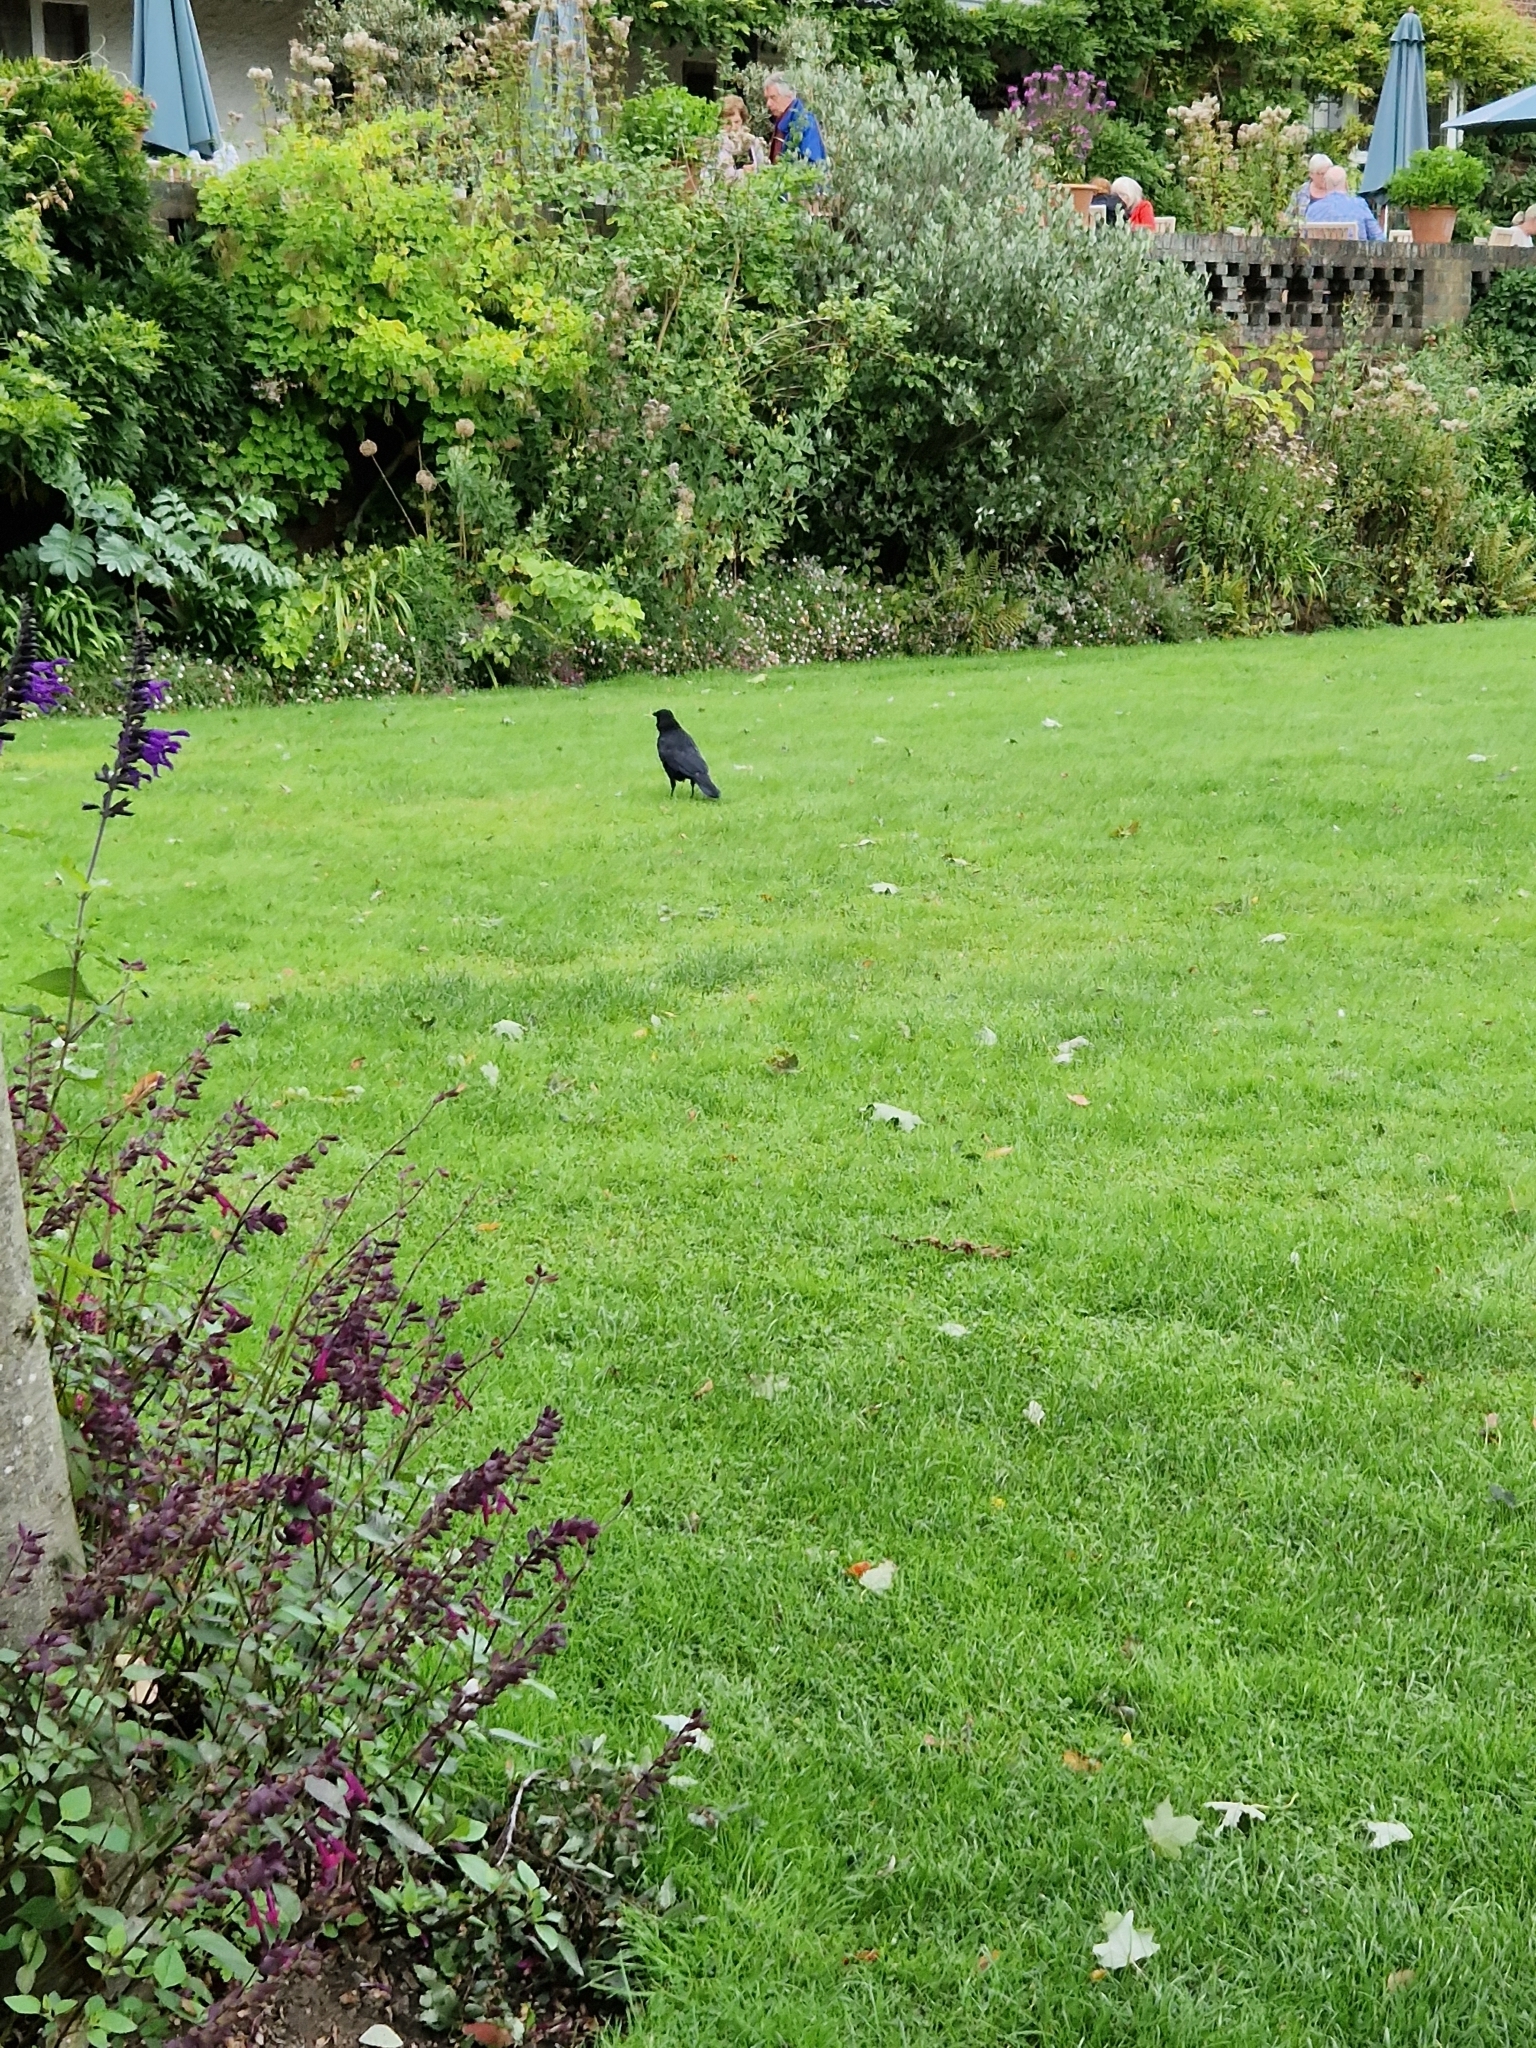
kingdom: Animalia
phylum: Chordata
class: Aves
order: Passeriformes
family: Corvidae
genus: Corvus
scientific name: Corvus corone
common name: Carrion crow
